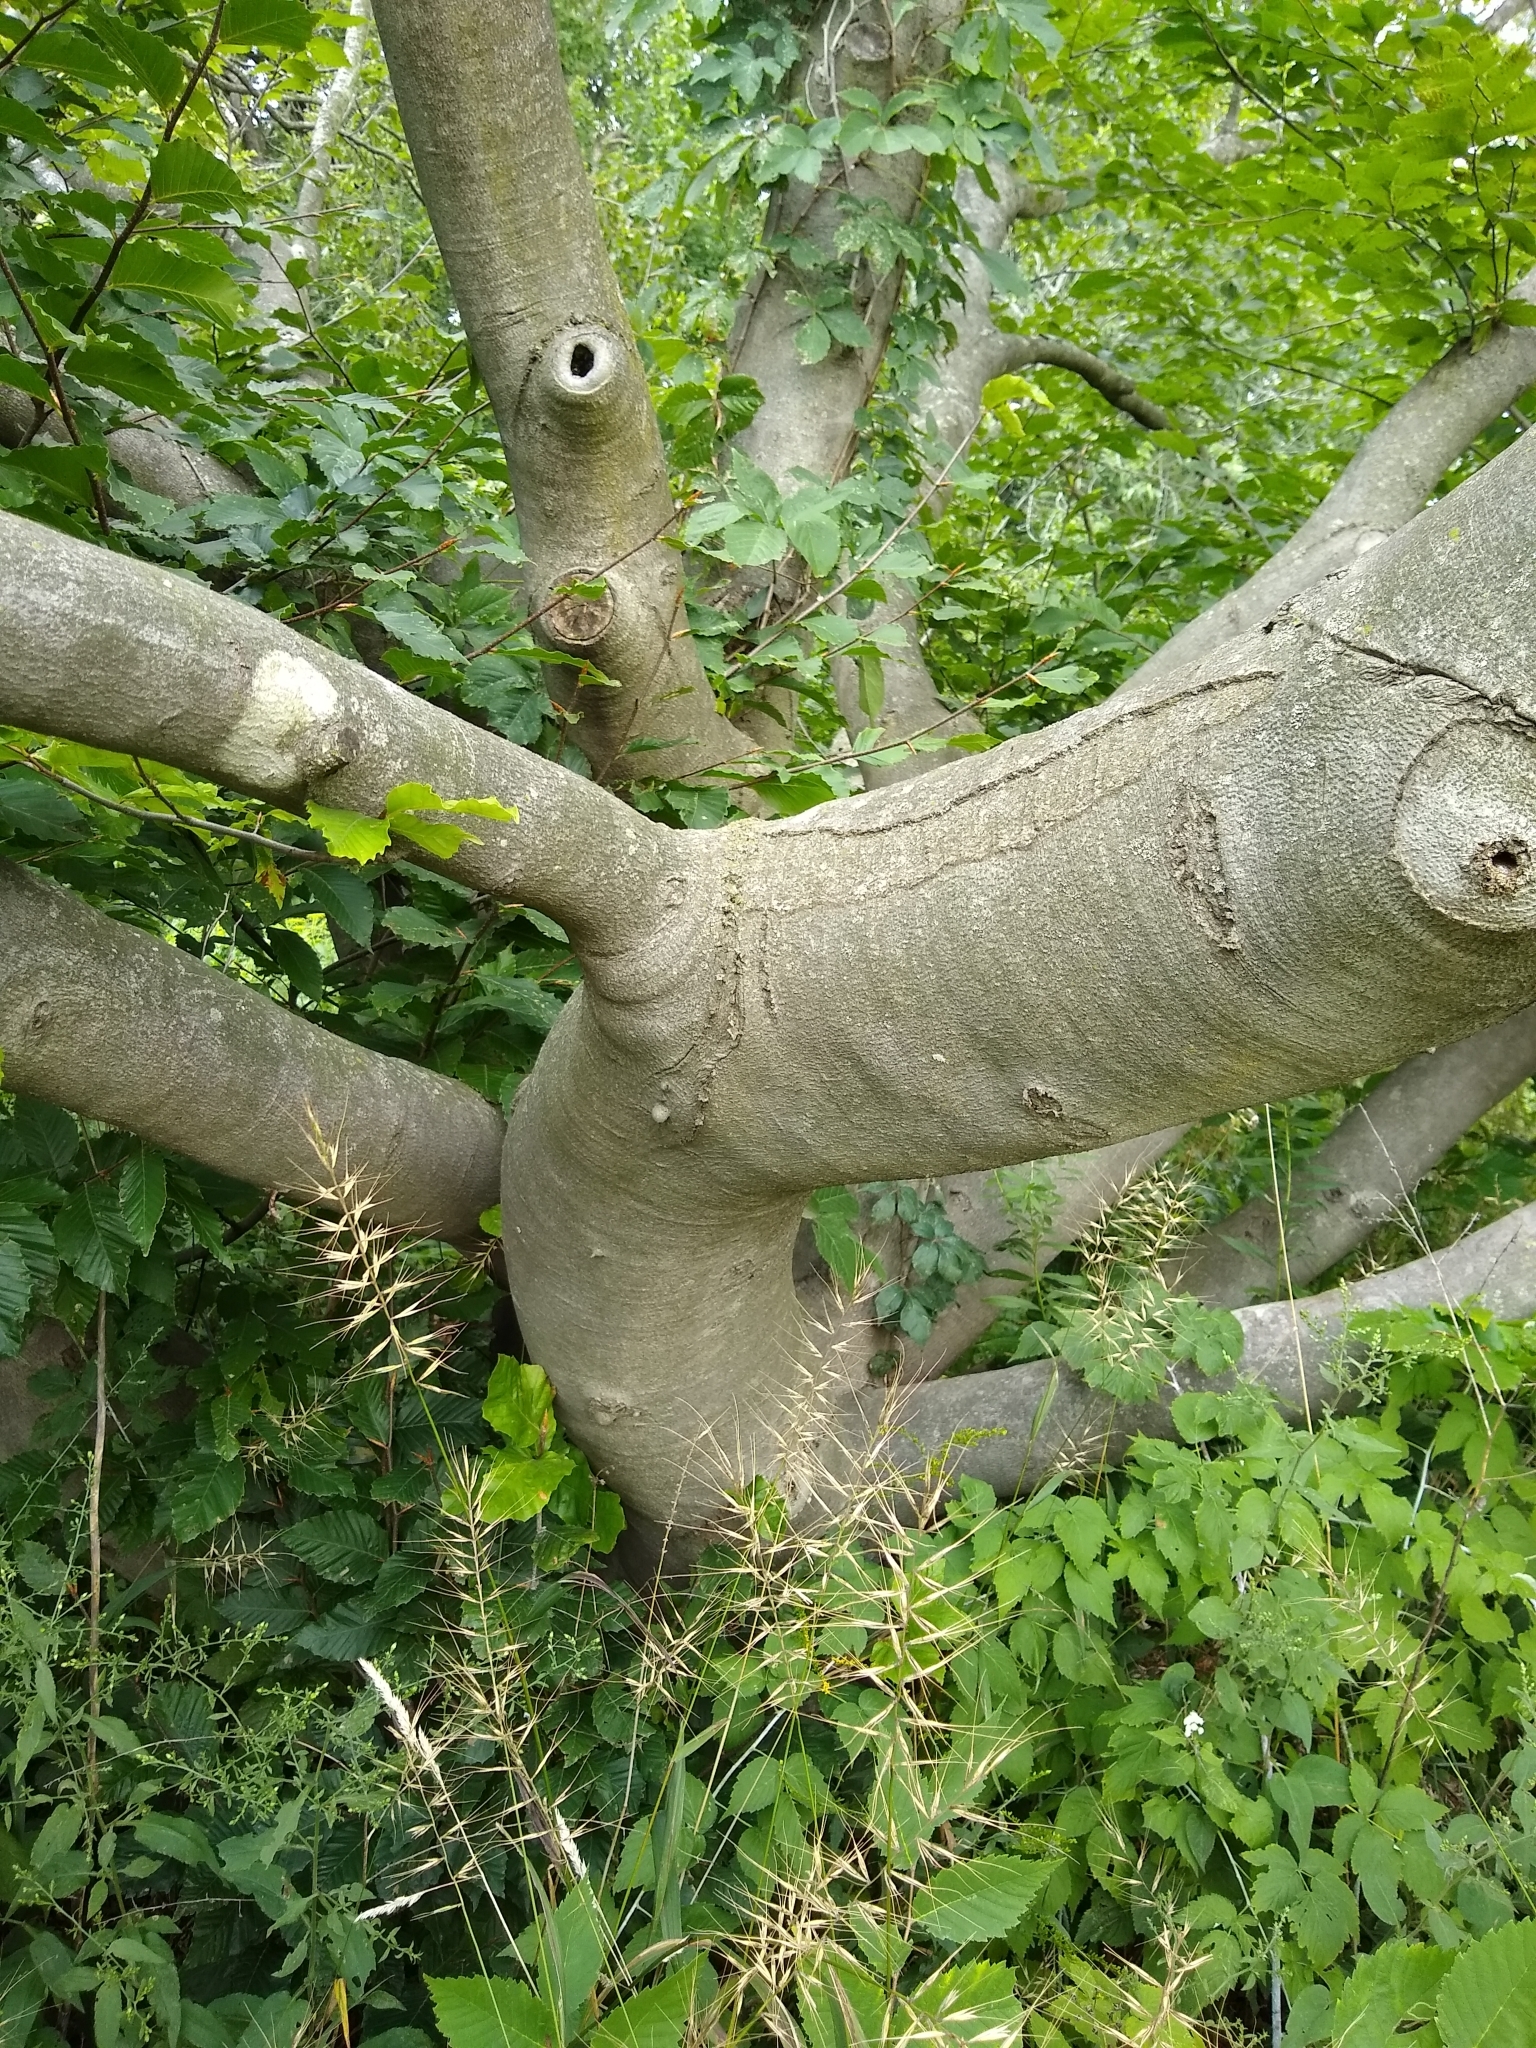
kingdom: Plantae
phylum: Tracheophyta
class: Magnoliopsida
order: Fagales
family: Fagaceae
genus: Fagus
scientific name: Fagus grandifolia
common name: American beech
